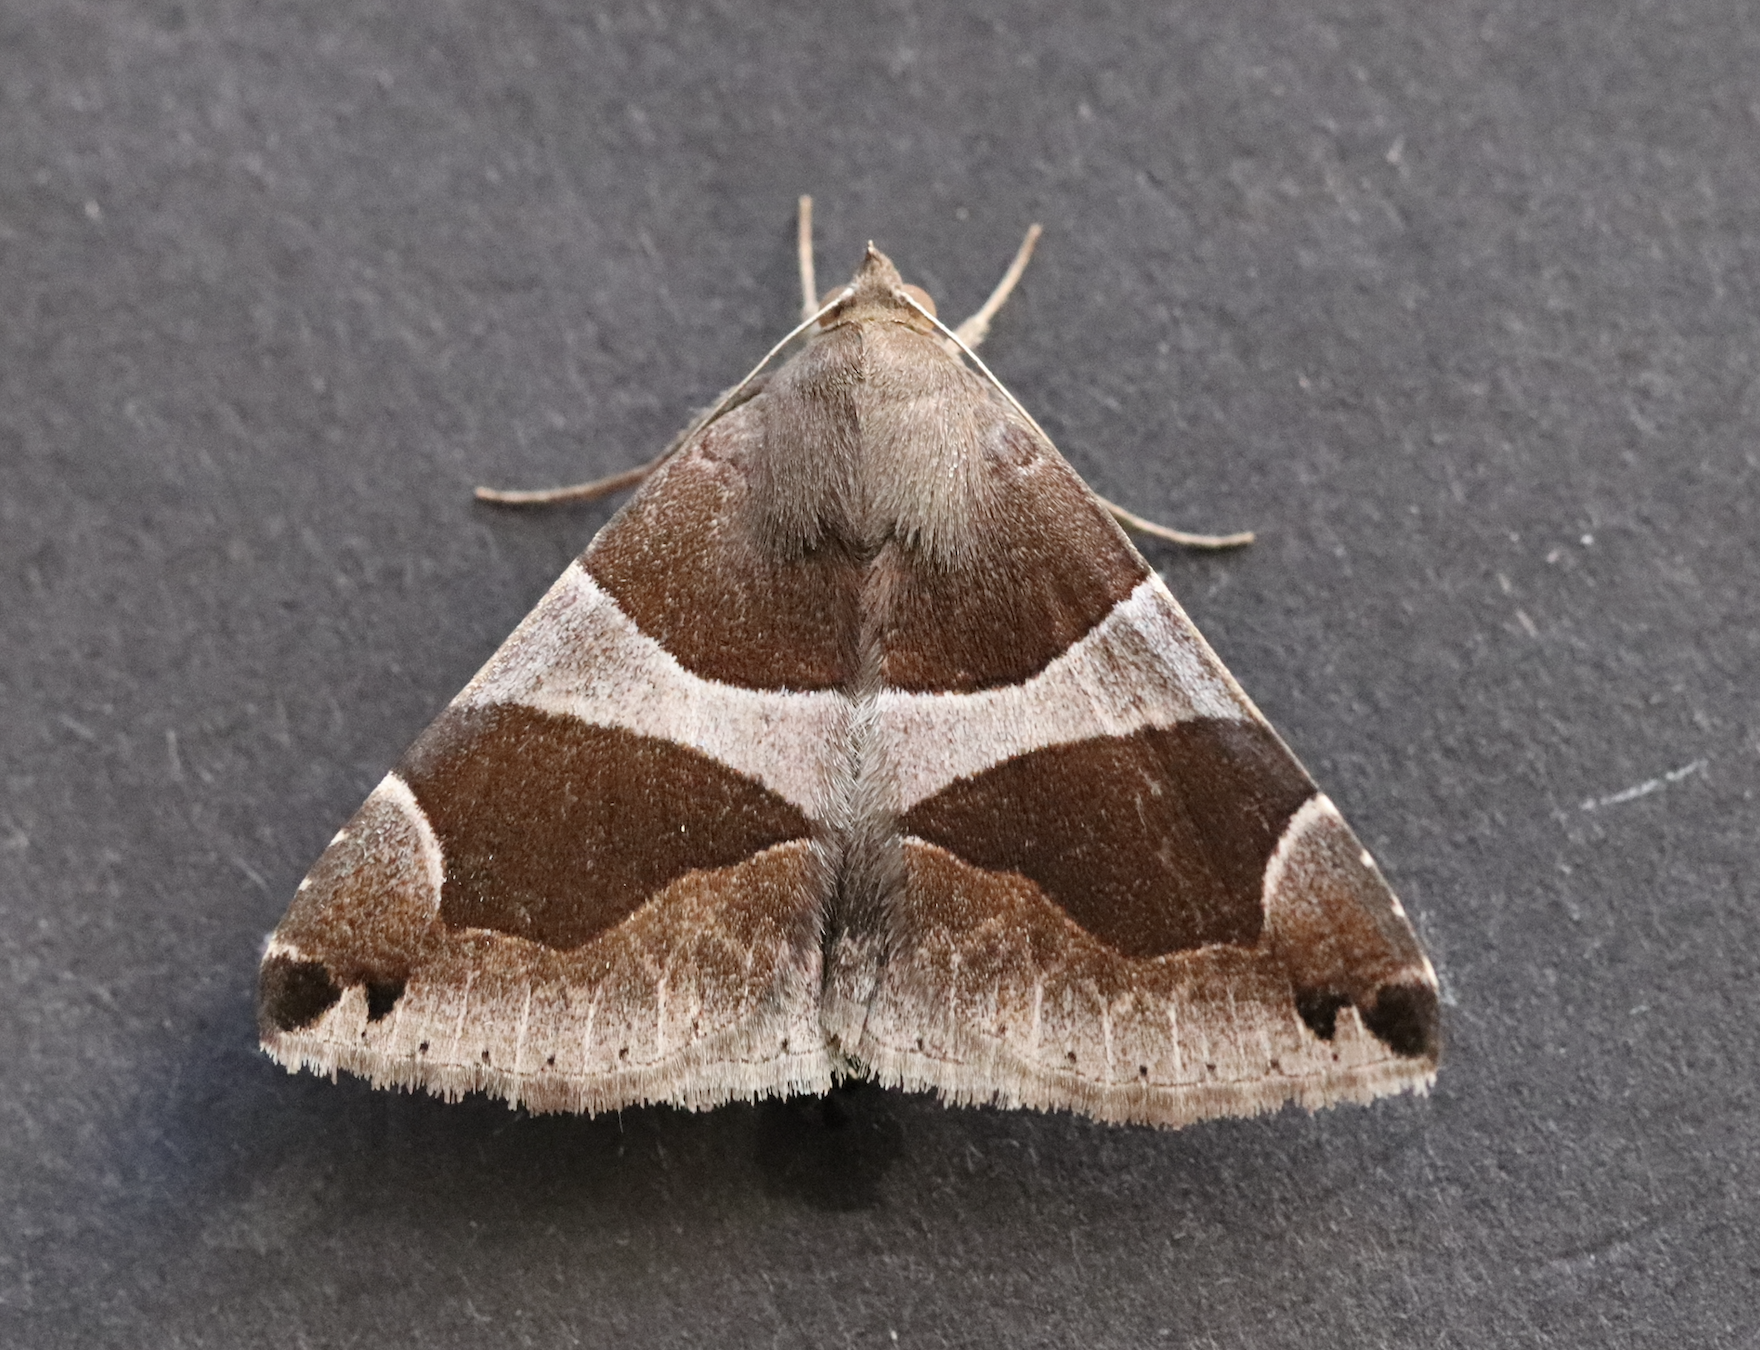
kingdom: Animalia
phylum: Arthropoda
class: Insecta
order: Lepidoptera
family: Erebidae
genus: Dysgonia
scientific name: Dysgonia algira
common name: Passenger
